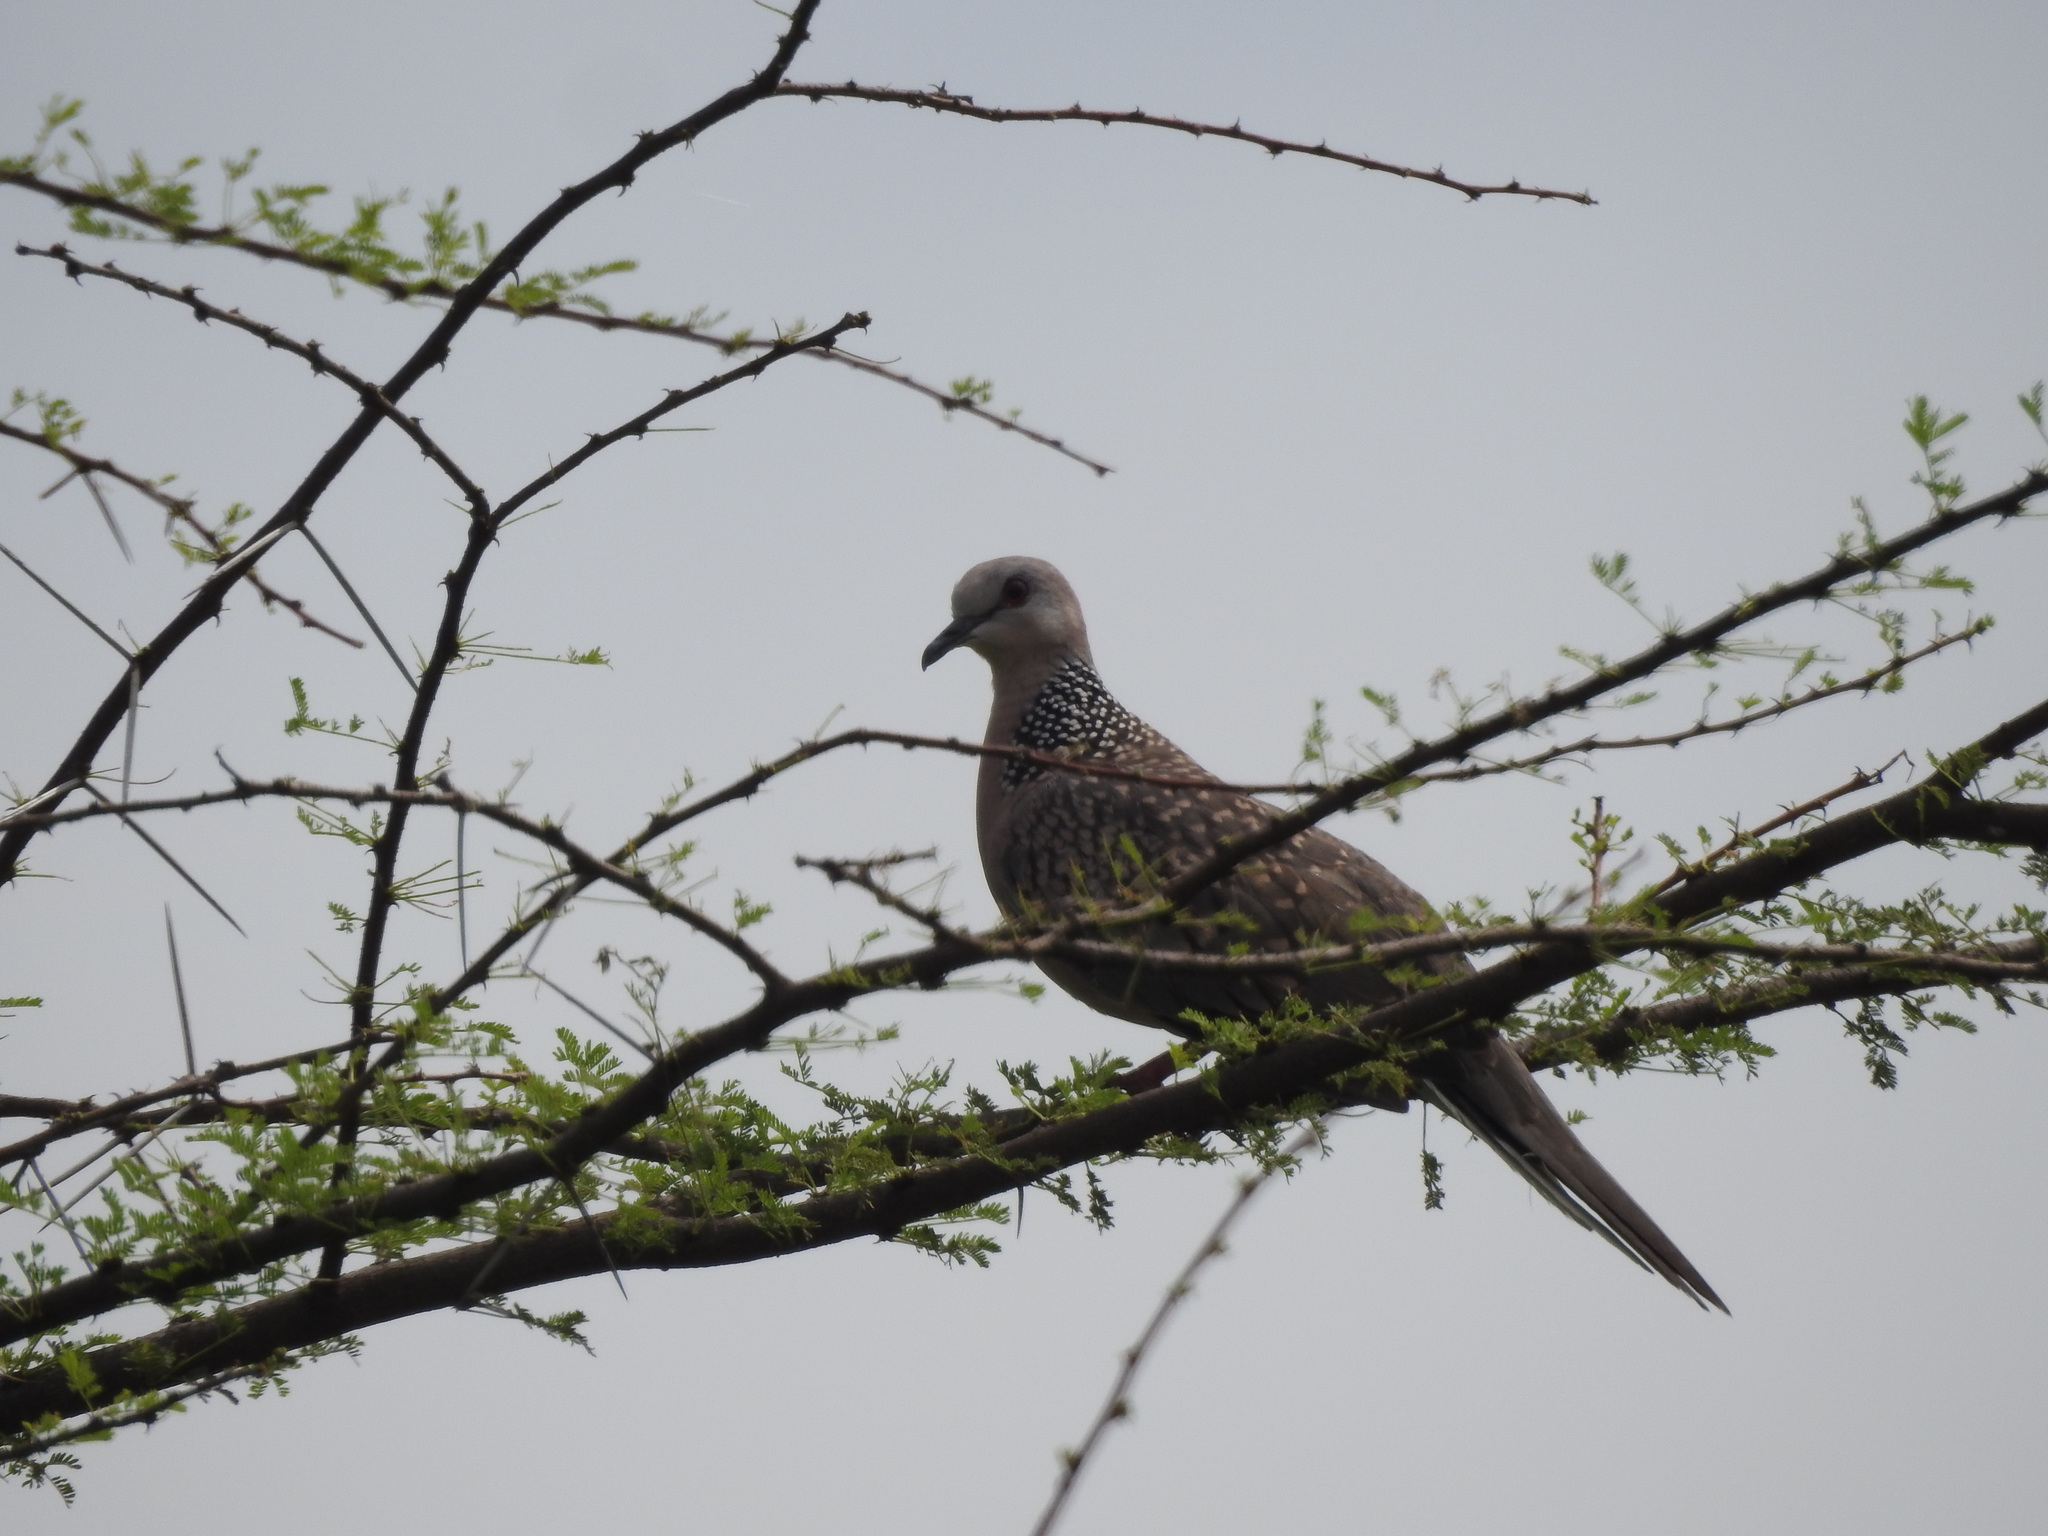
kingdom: Animalia
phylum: Chordata
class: Aves
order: Columbiformes
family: Columbidae
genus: Spilopelia
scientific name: Spilopelia chinensis
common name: Spotted dove
